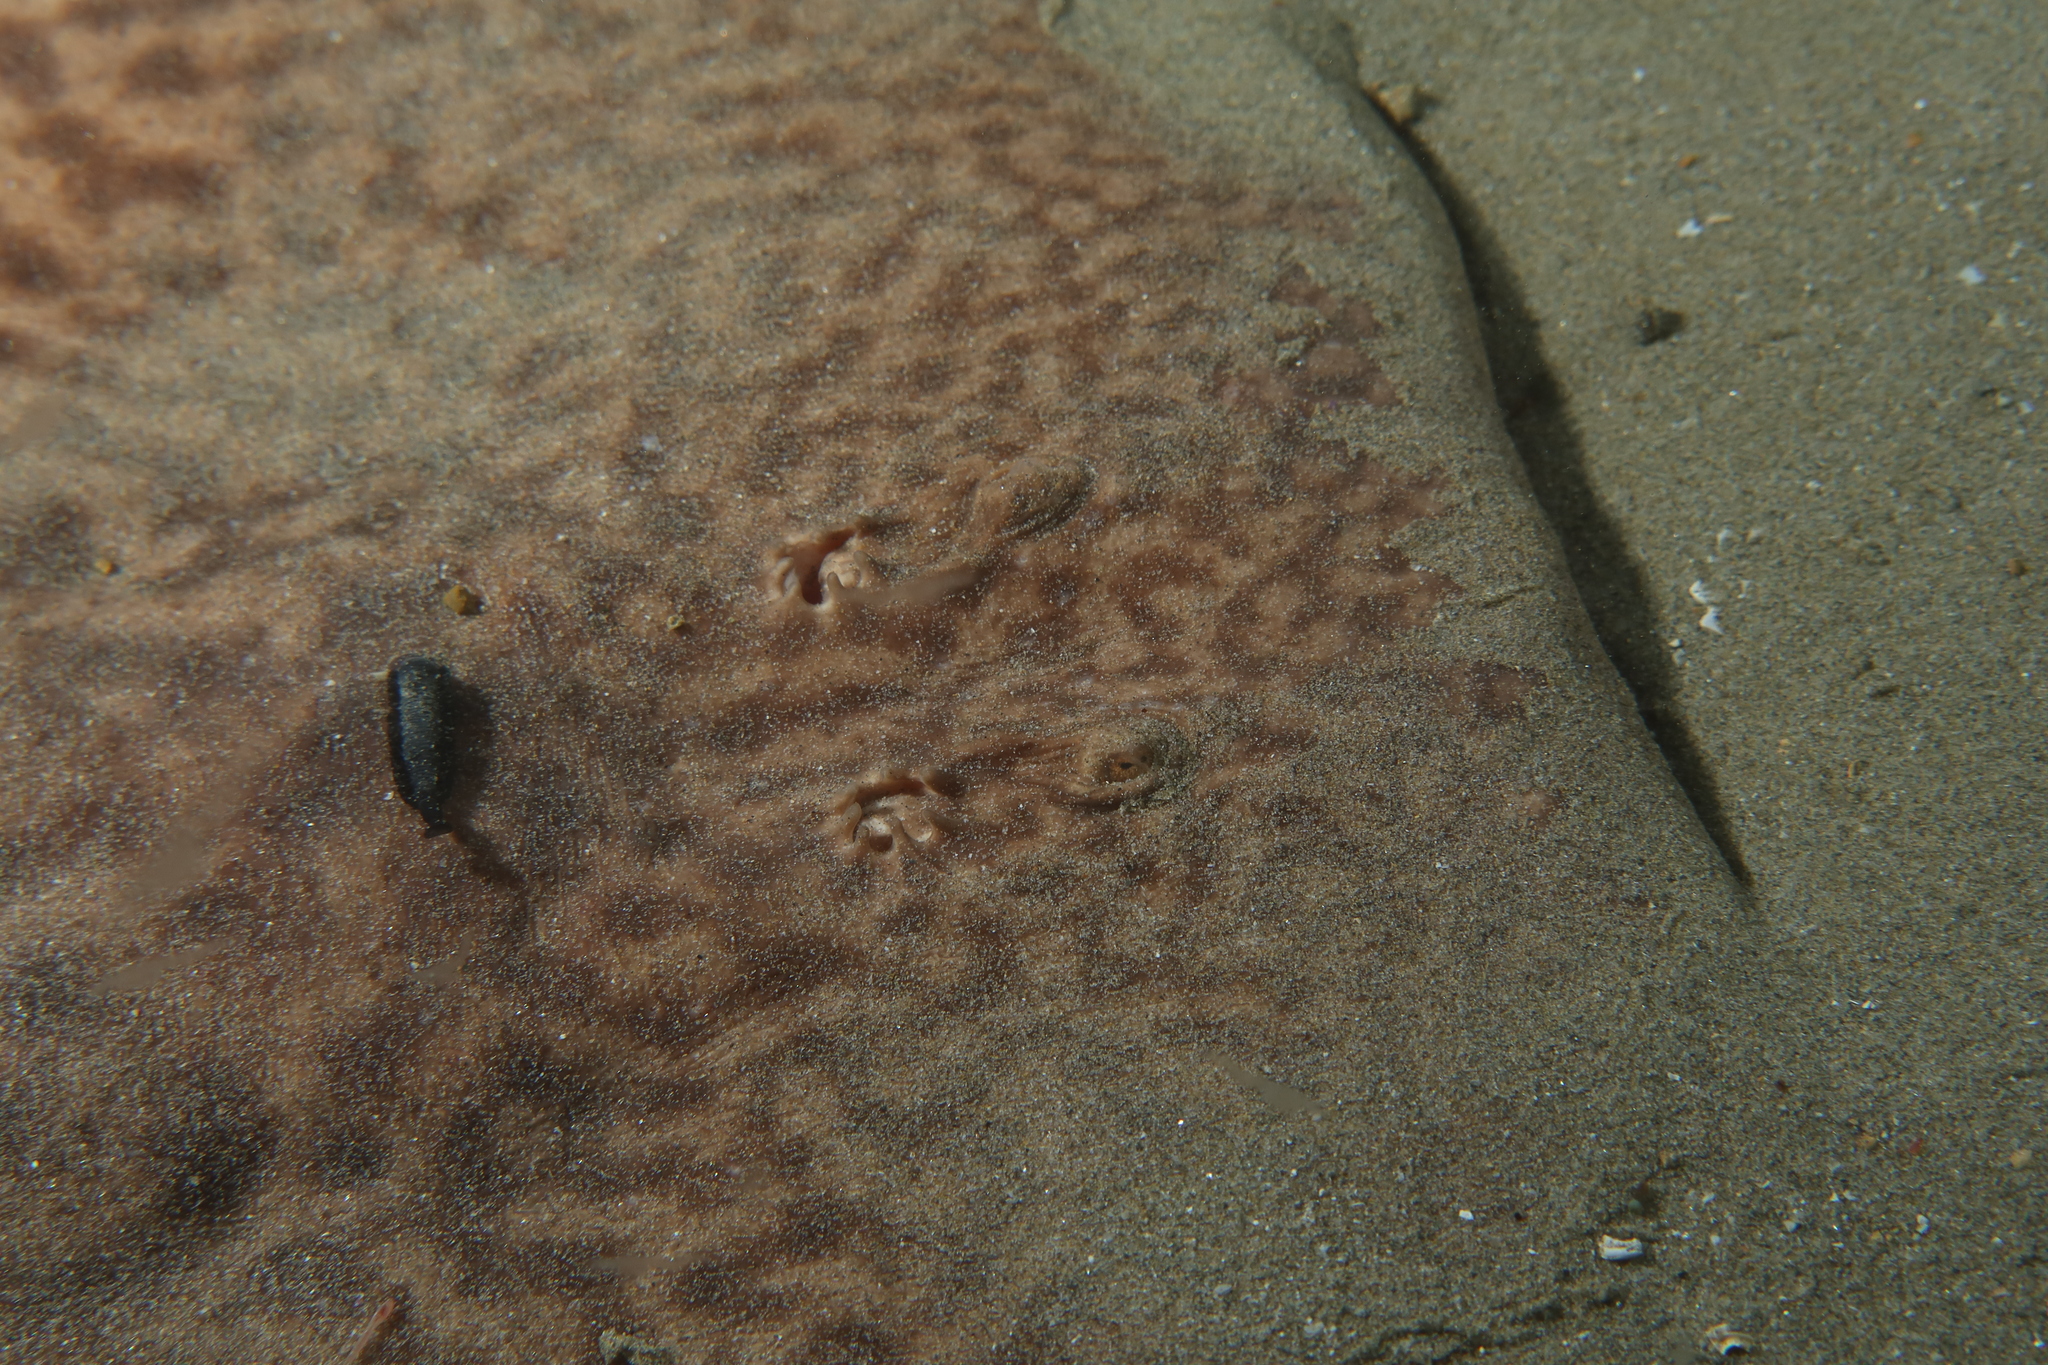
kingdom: Animalia
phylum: Chordata
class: Elasmobranchii
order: Torpediniformes
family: Torpedinidae
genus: Torpedo
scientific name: Torpedo marmorata
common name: Marbled electric ray
